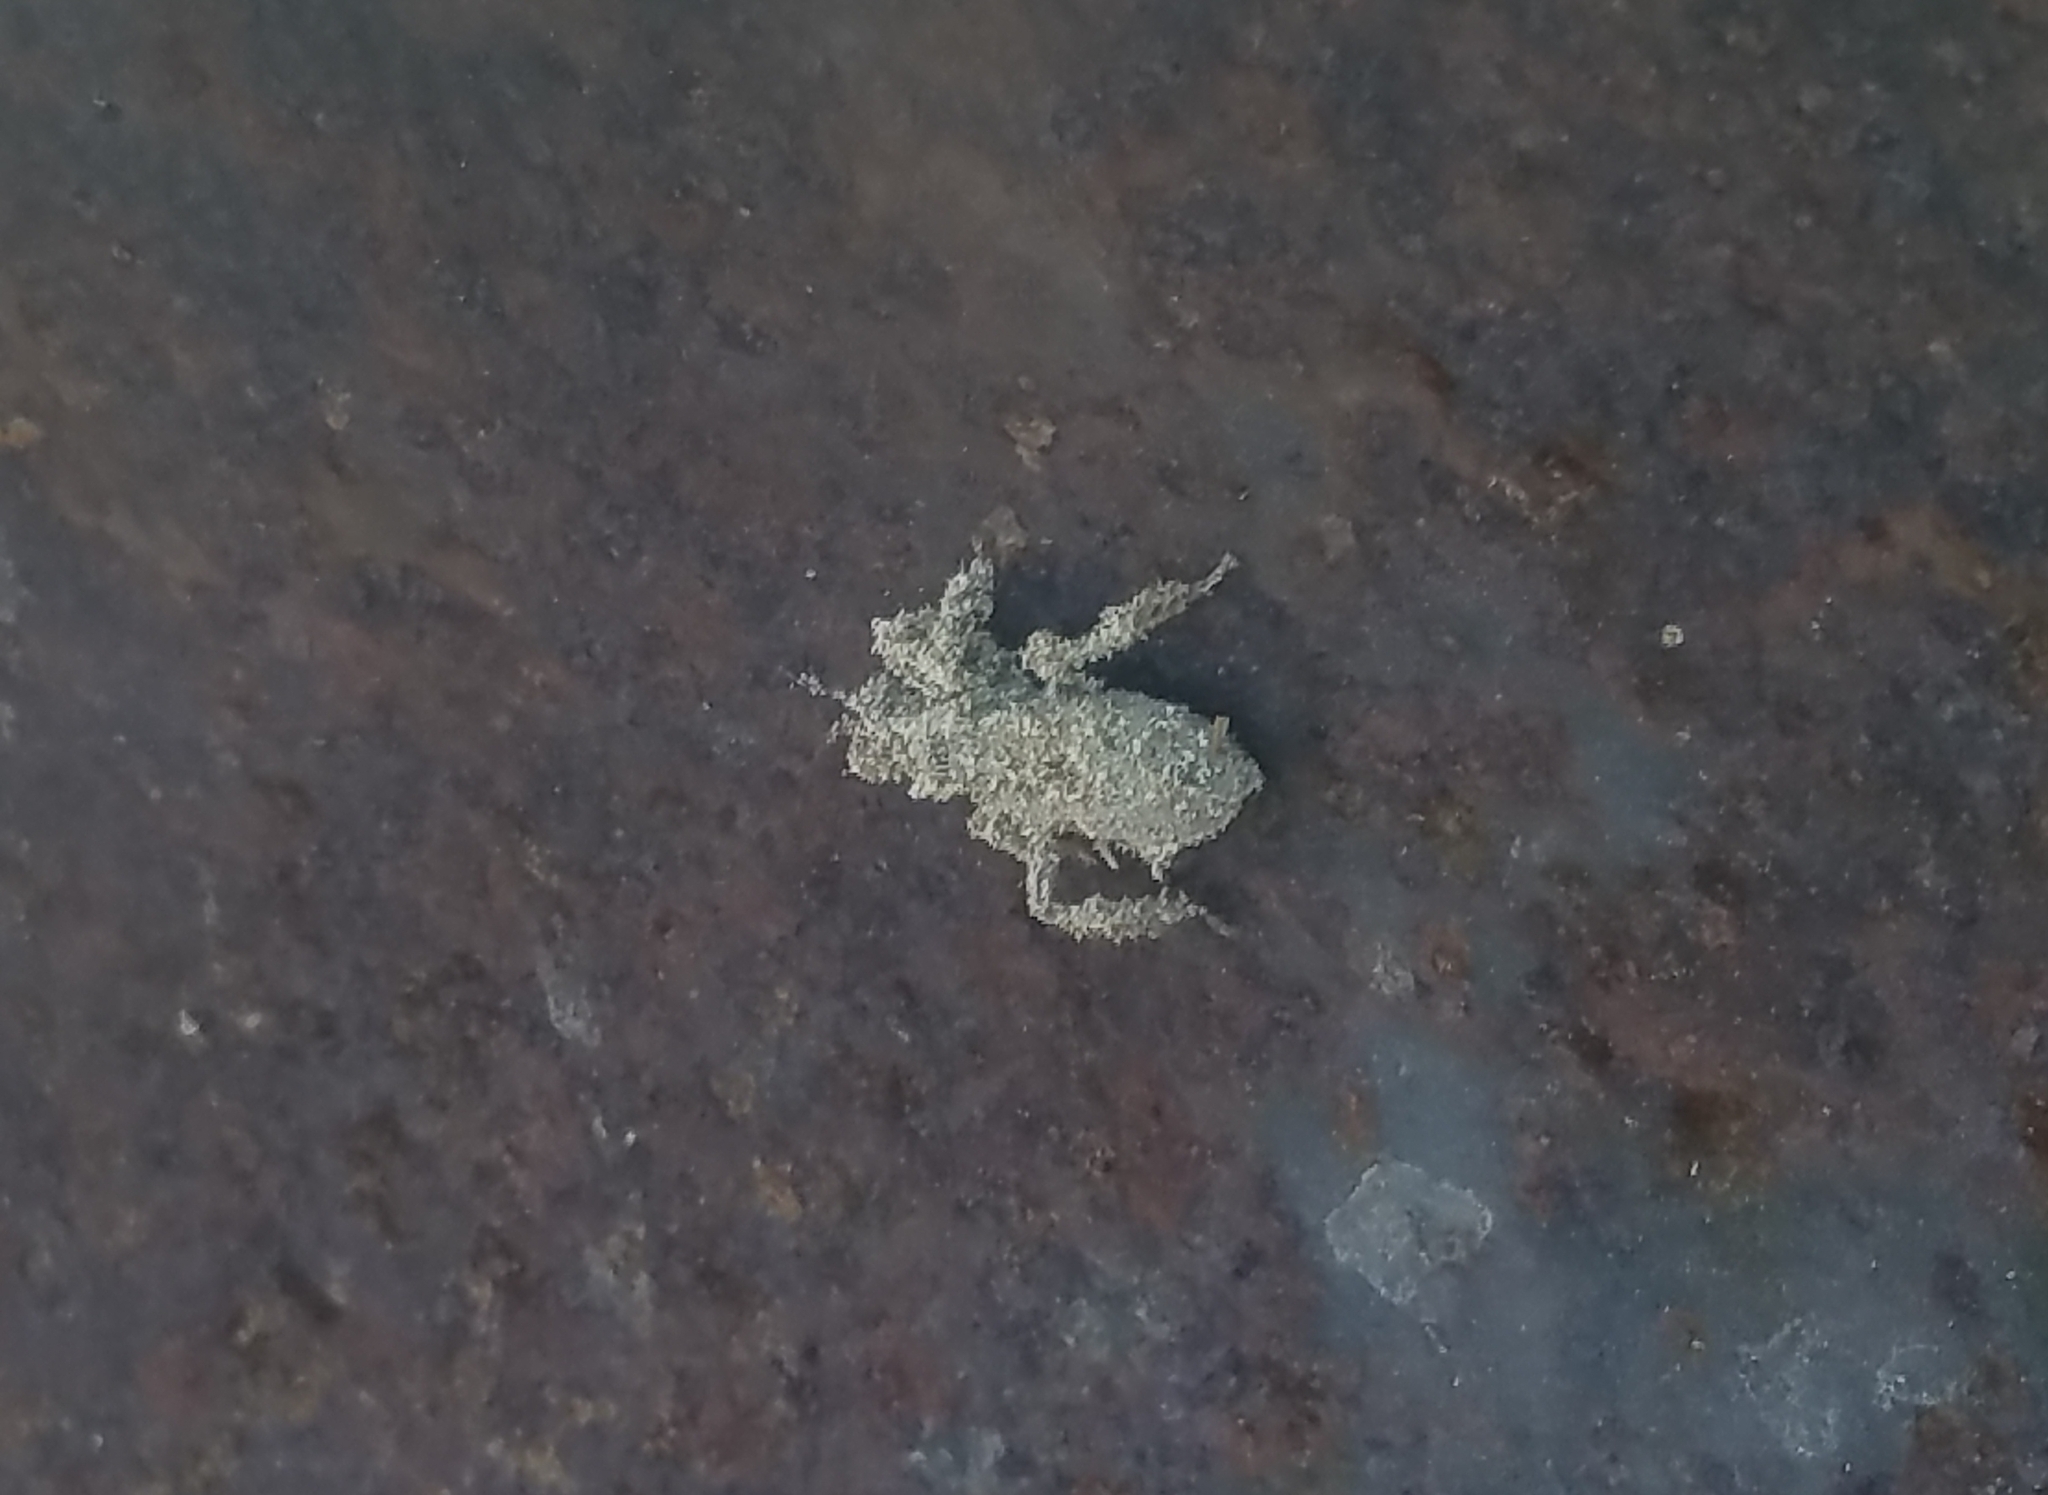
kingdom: Animalia
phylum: Arthropoda
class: Insecta
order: Hemiptera
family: Reduviidae
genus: Reduvius
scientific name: Reduvius personatus
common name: Masked hunter
